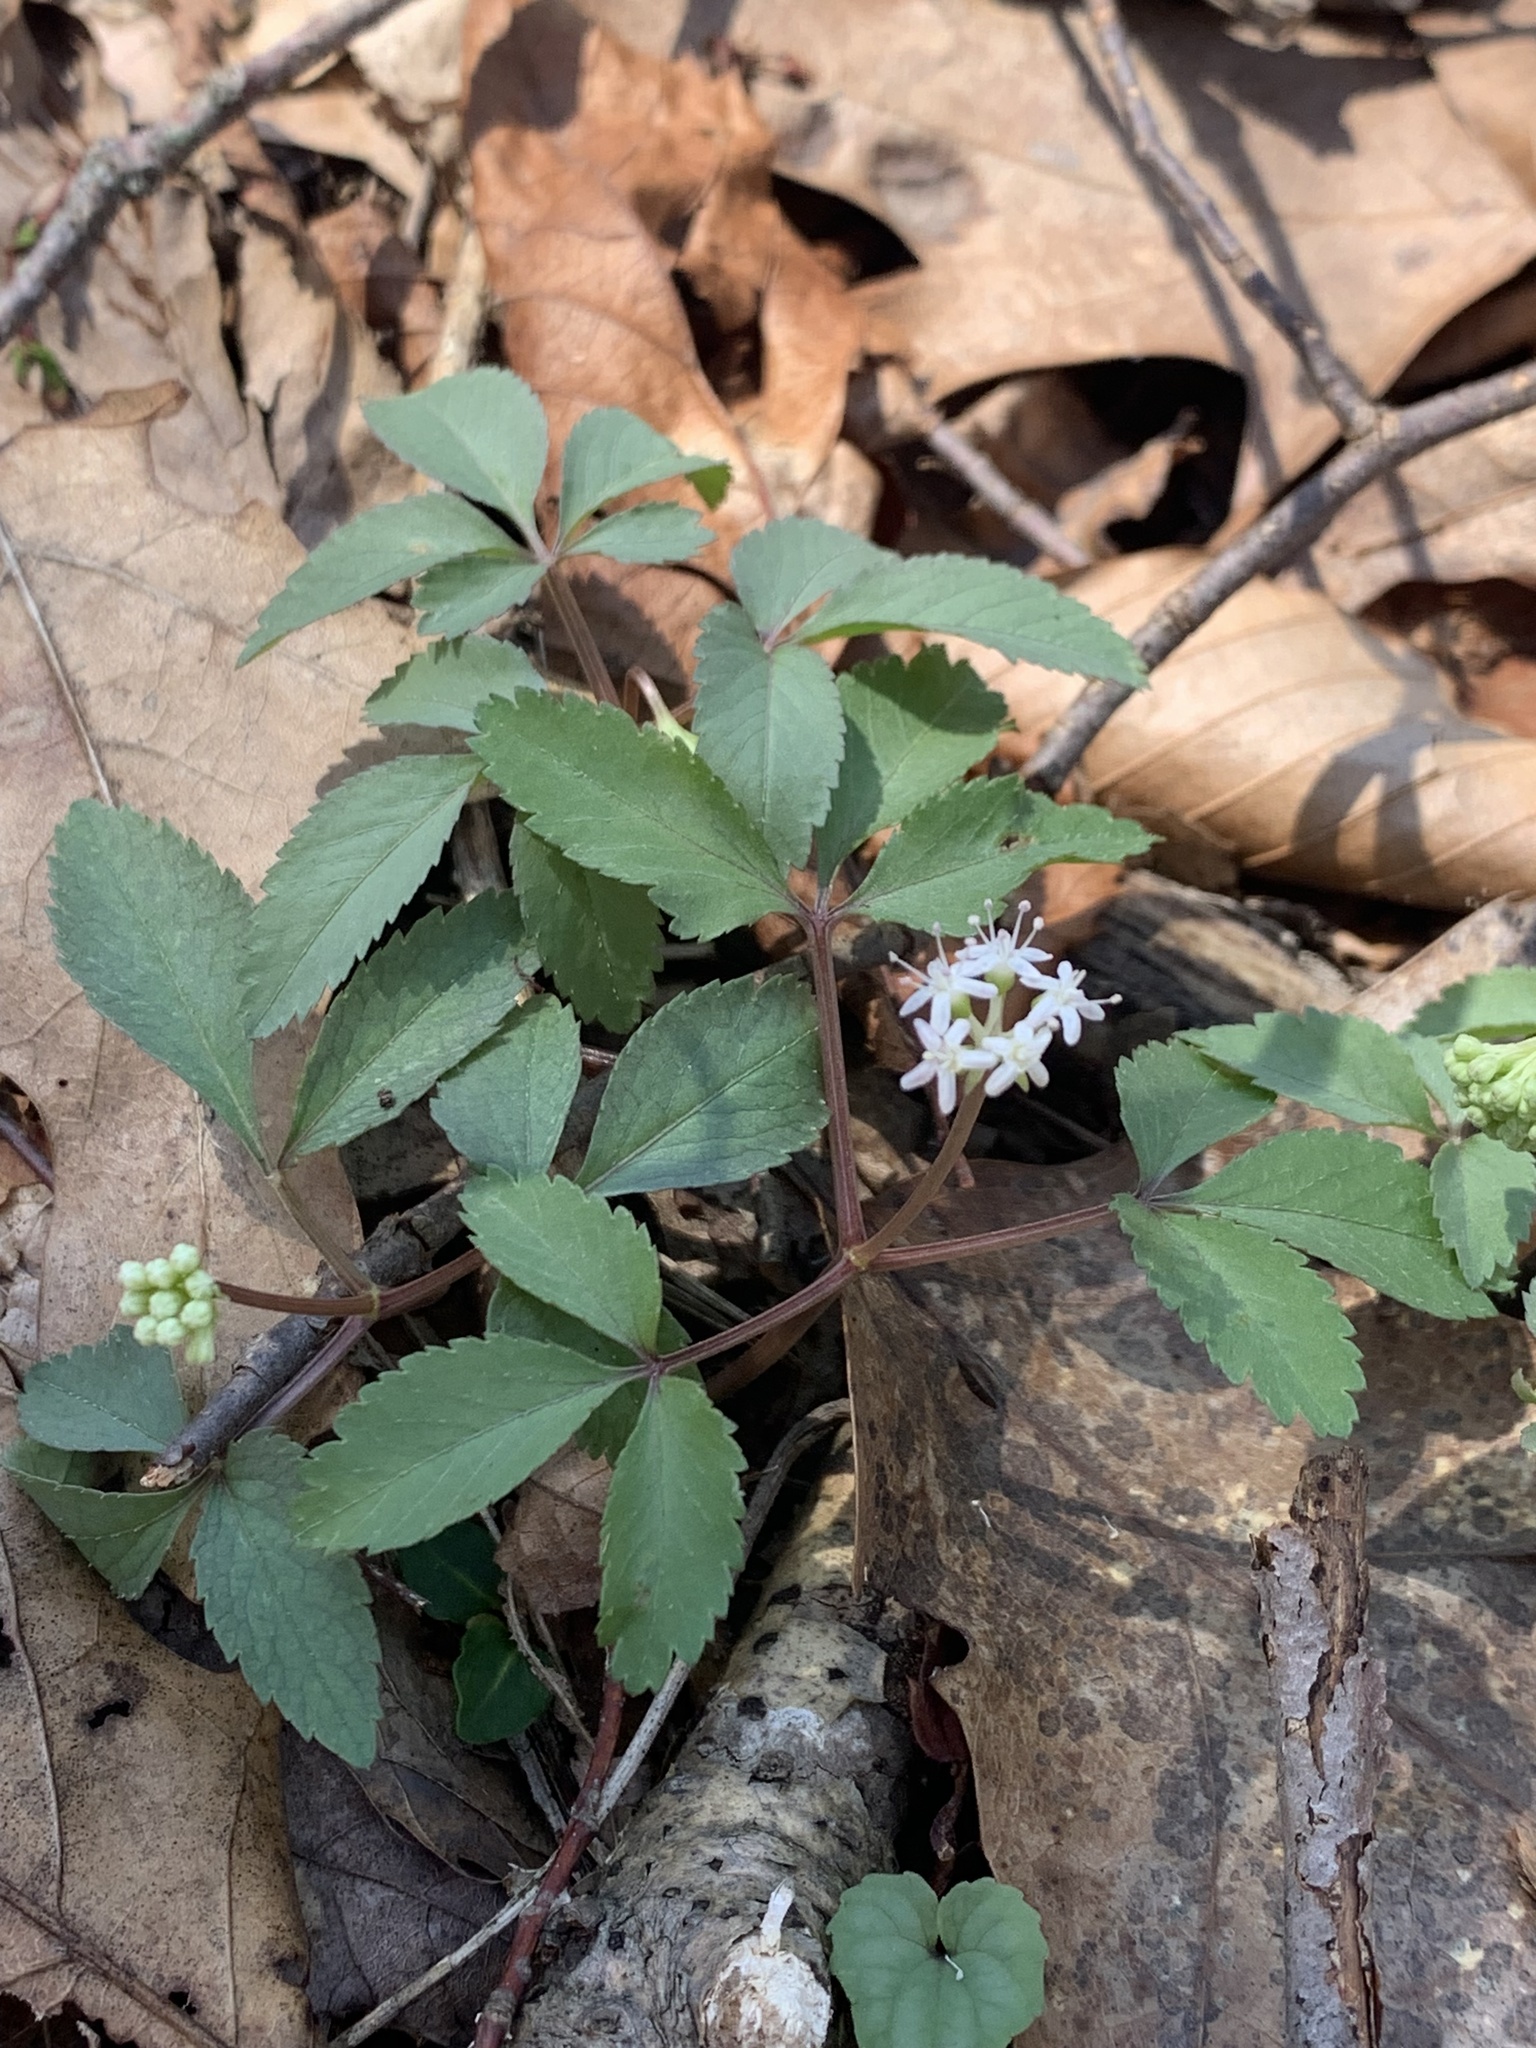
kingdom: Plantae
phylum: Tracheophyta
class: Magnoliopsida
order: Apiales
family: Araliaceae
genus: Panax
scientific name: Panax trifolius
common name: Dwarf ginseng
